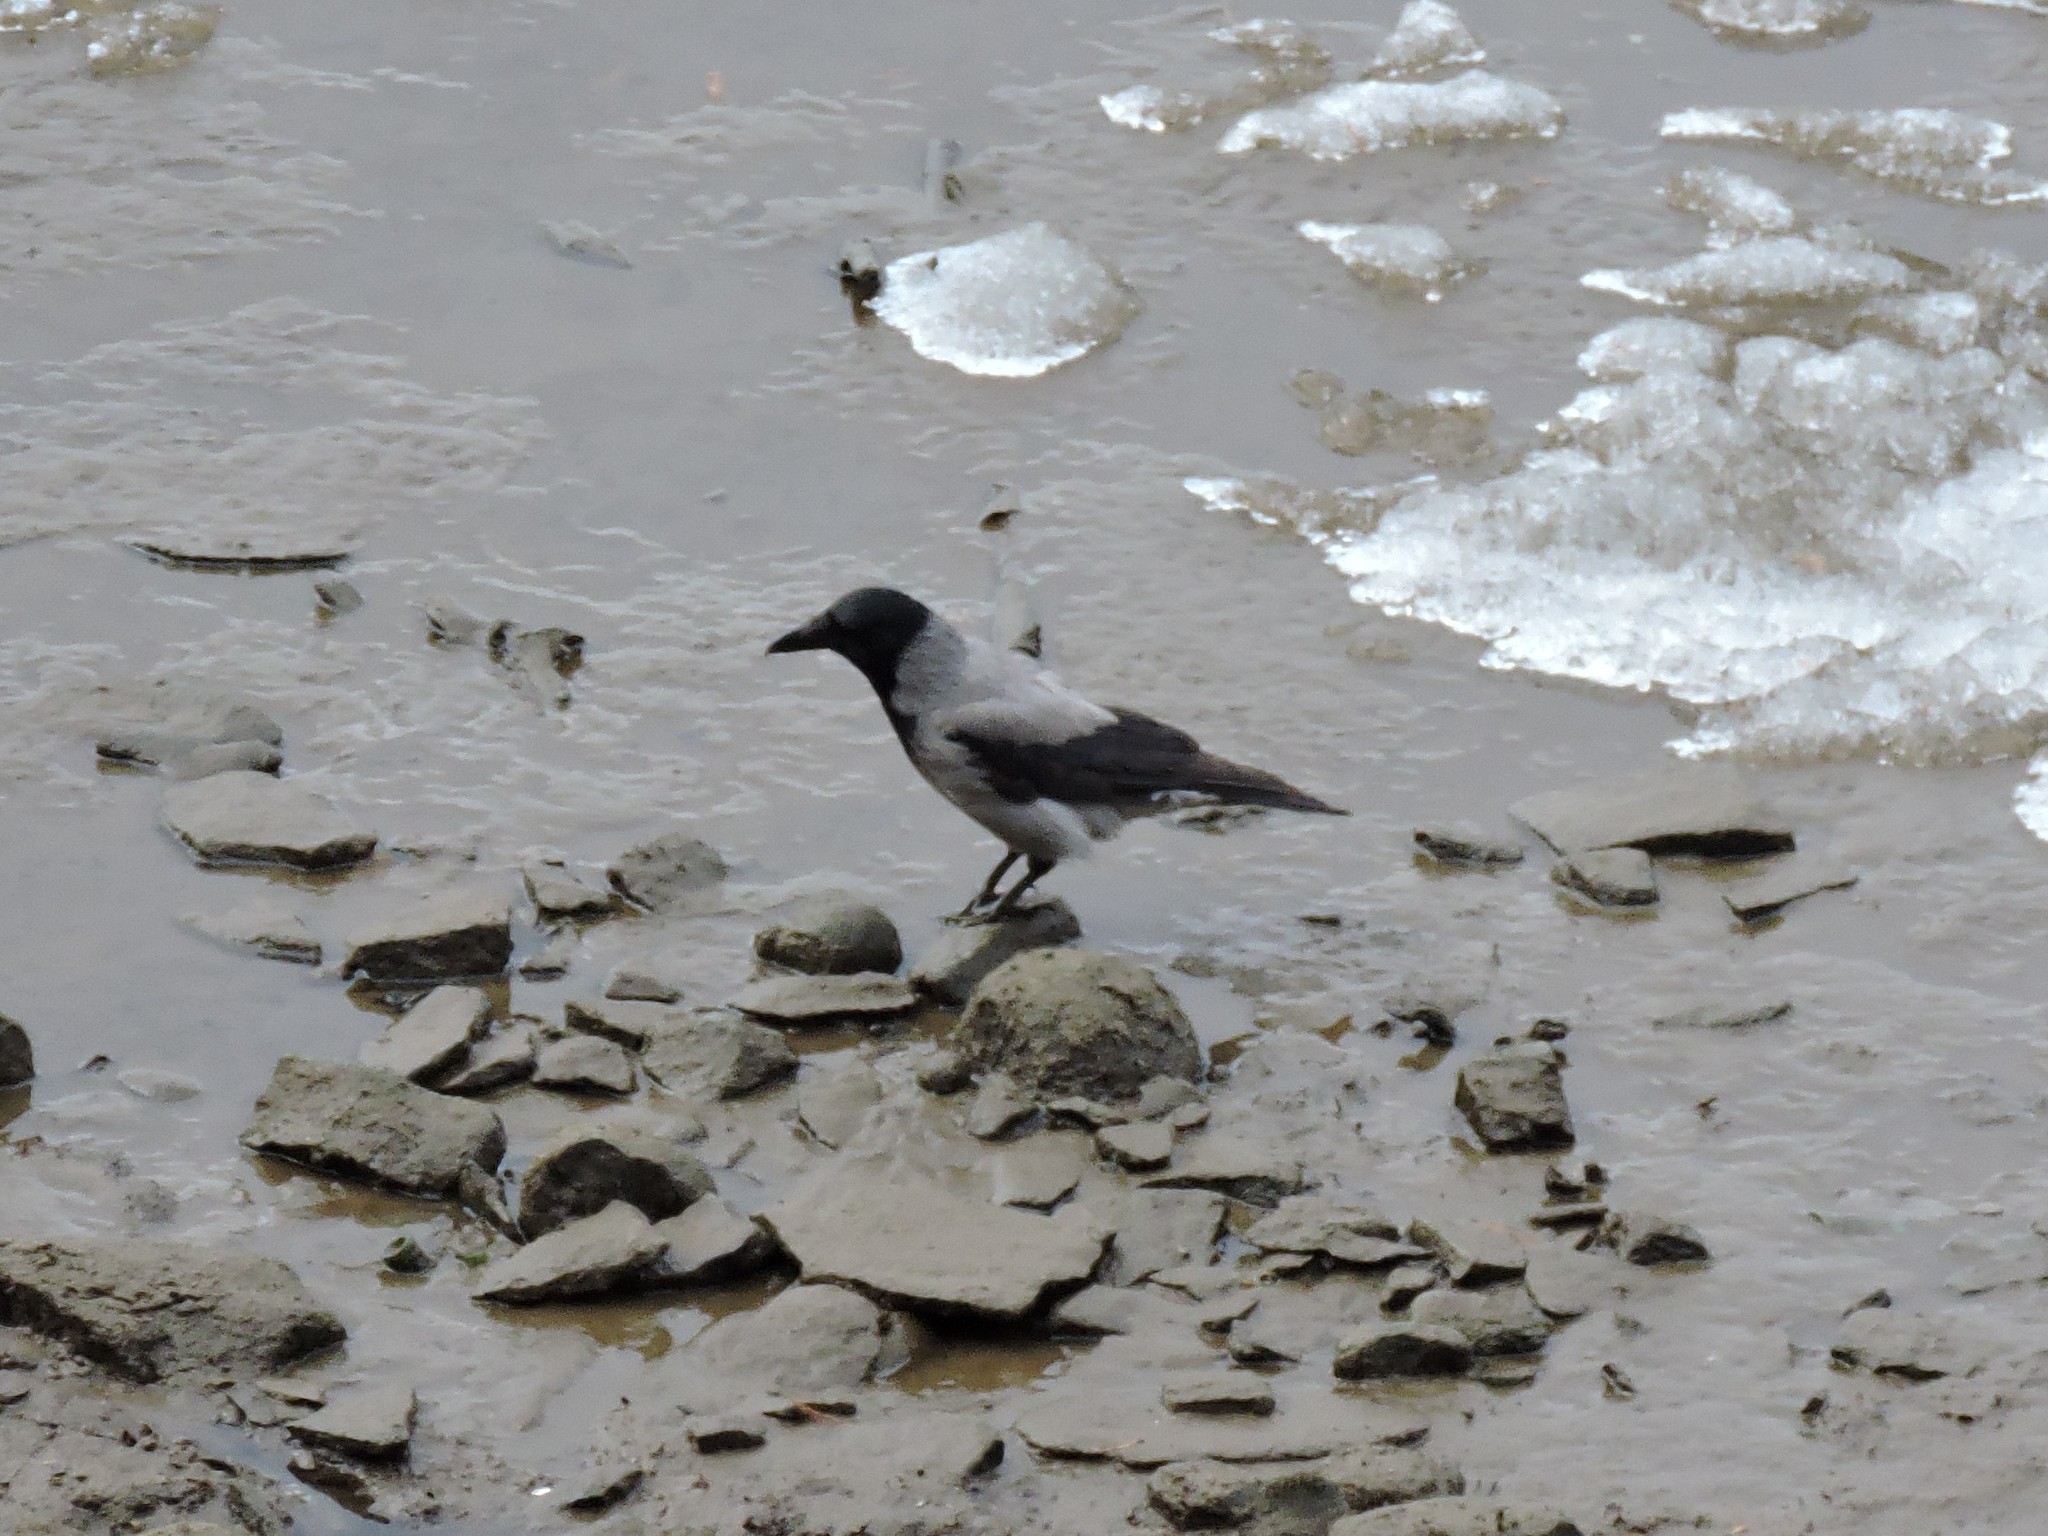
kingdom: Animalia
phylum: Chordata
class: Aves
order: Passeriformes
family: Corvidae
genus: Corvus
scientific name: Corvus cornix
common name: Hooded crow
